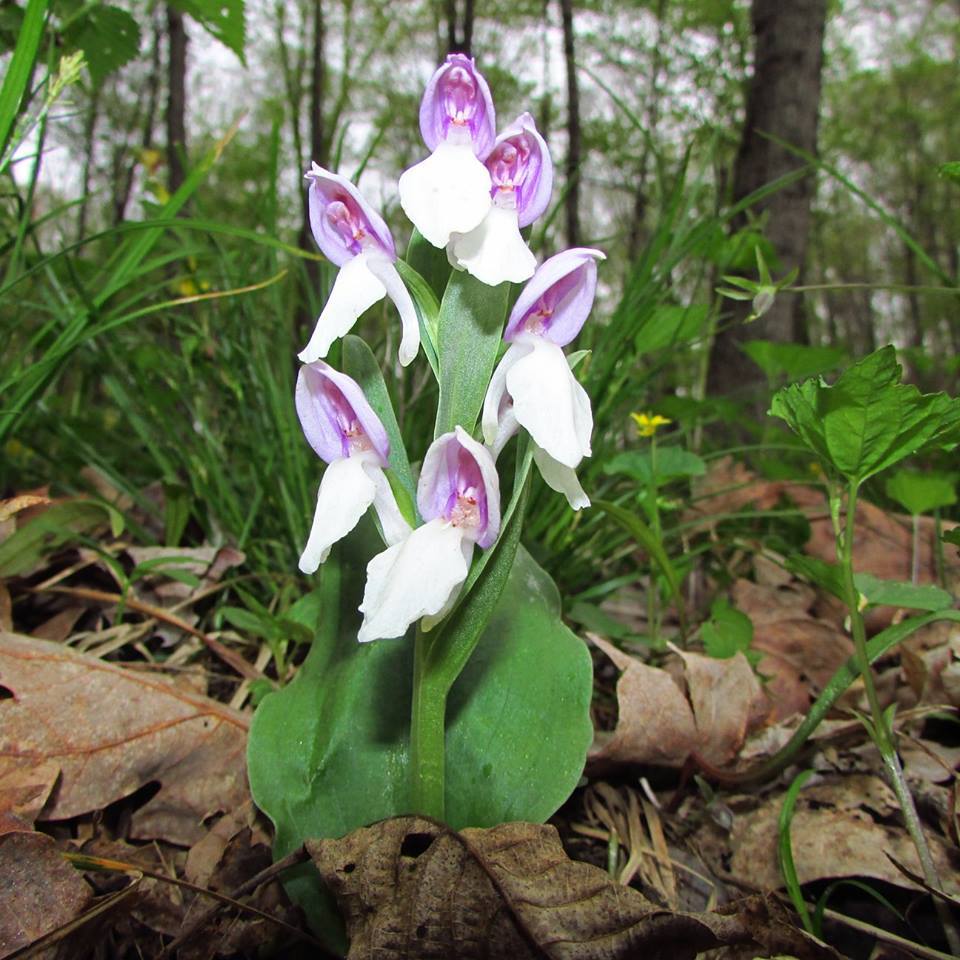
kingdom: Plantae
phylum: Tracheophyta
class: Liliopsida
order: Asparagales
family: Orchidaceae
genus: Galearis
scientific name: Galearis spectabilis
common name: Purple-hooded orchis
